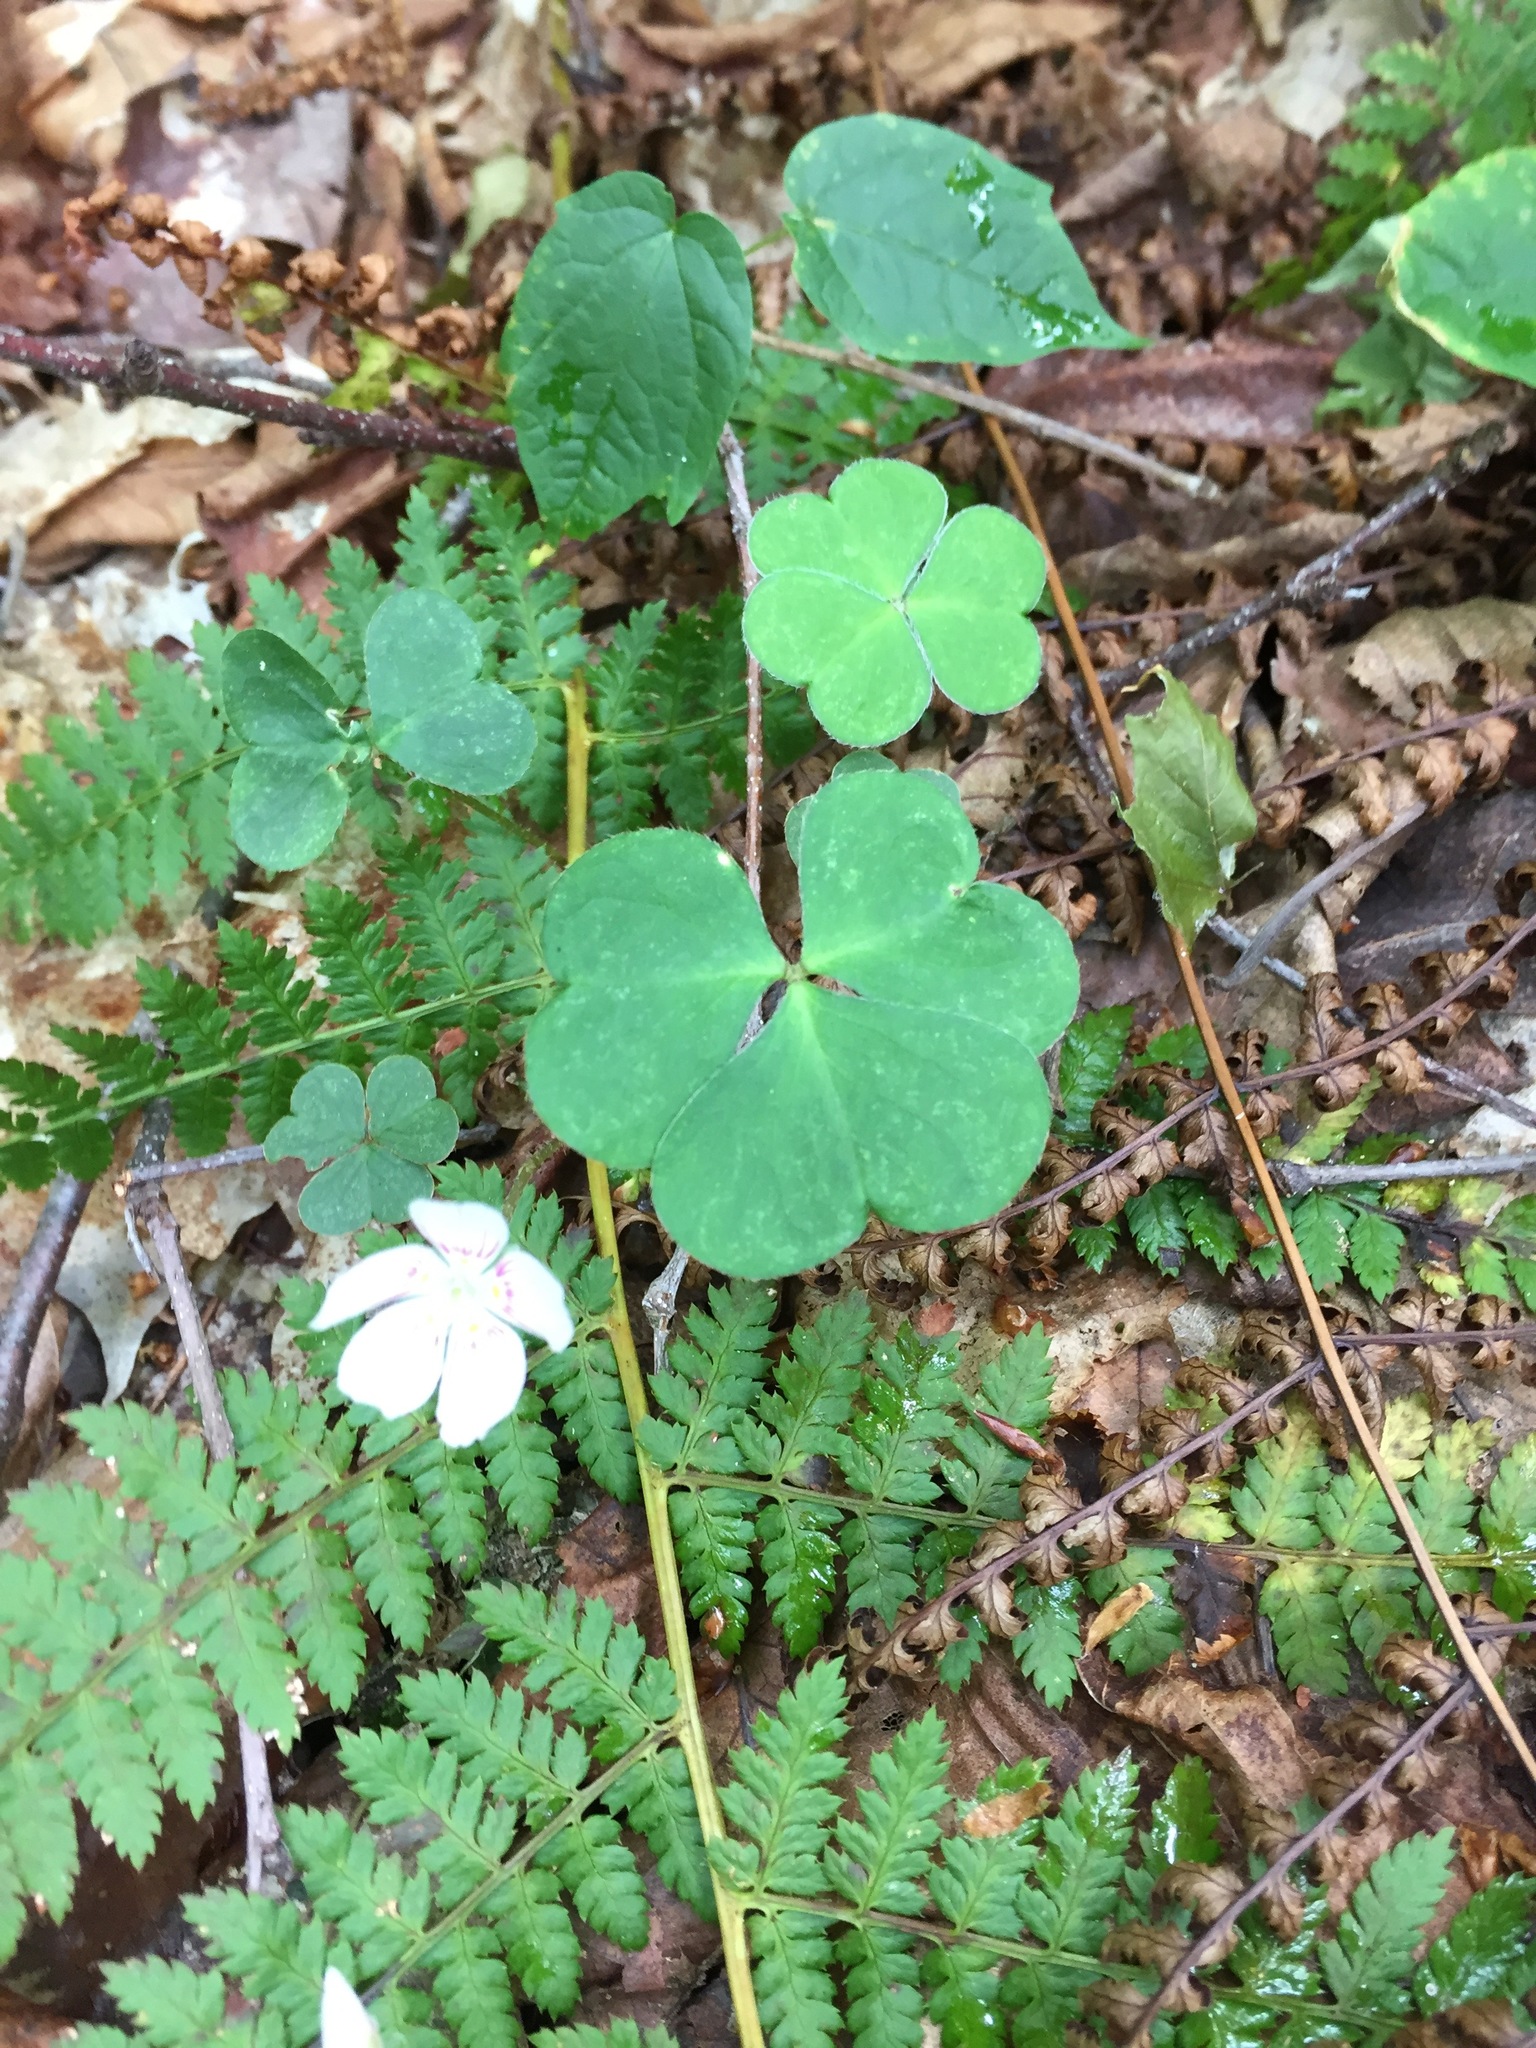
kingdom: Plantae
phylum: Tracheophyta
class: Magnoliopsida
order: Oxalidales
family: Oxalidaceae
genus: Oxalis
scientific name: Oxalis montana
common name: American wood-sorrel
